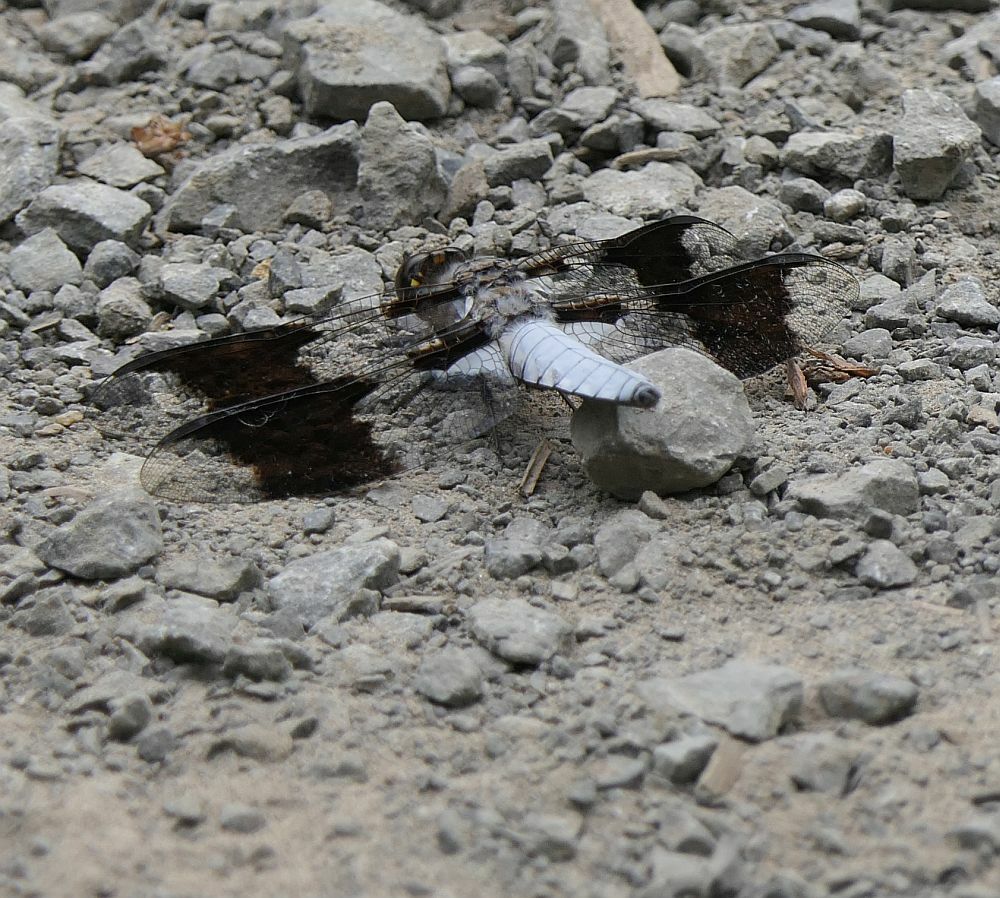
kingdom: Animalia
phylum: Arthropoda
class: Insecta
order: Odonata
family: Libellulidae
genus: Plathemis
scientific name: Plathemis lydia
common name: Common whitetail
